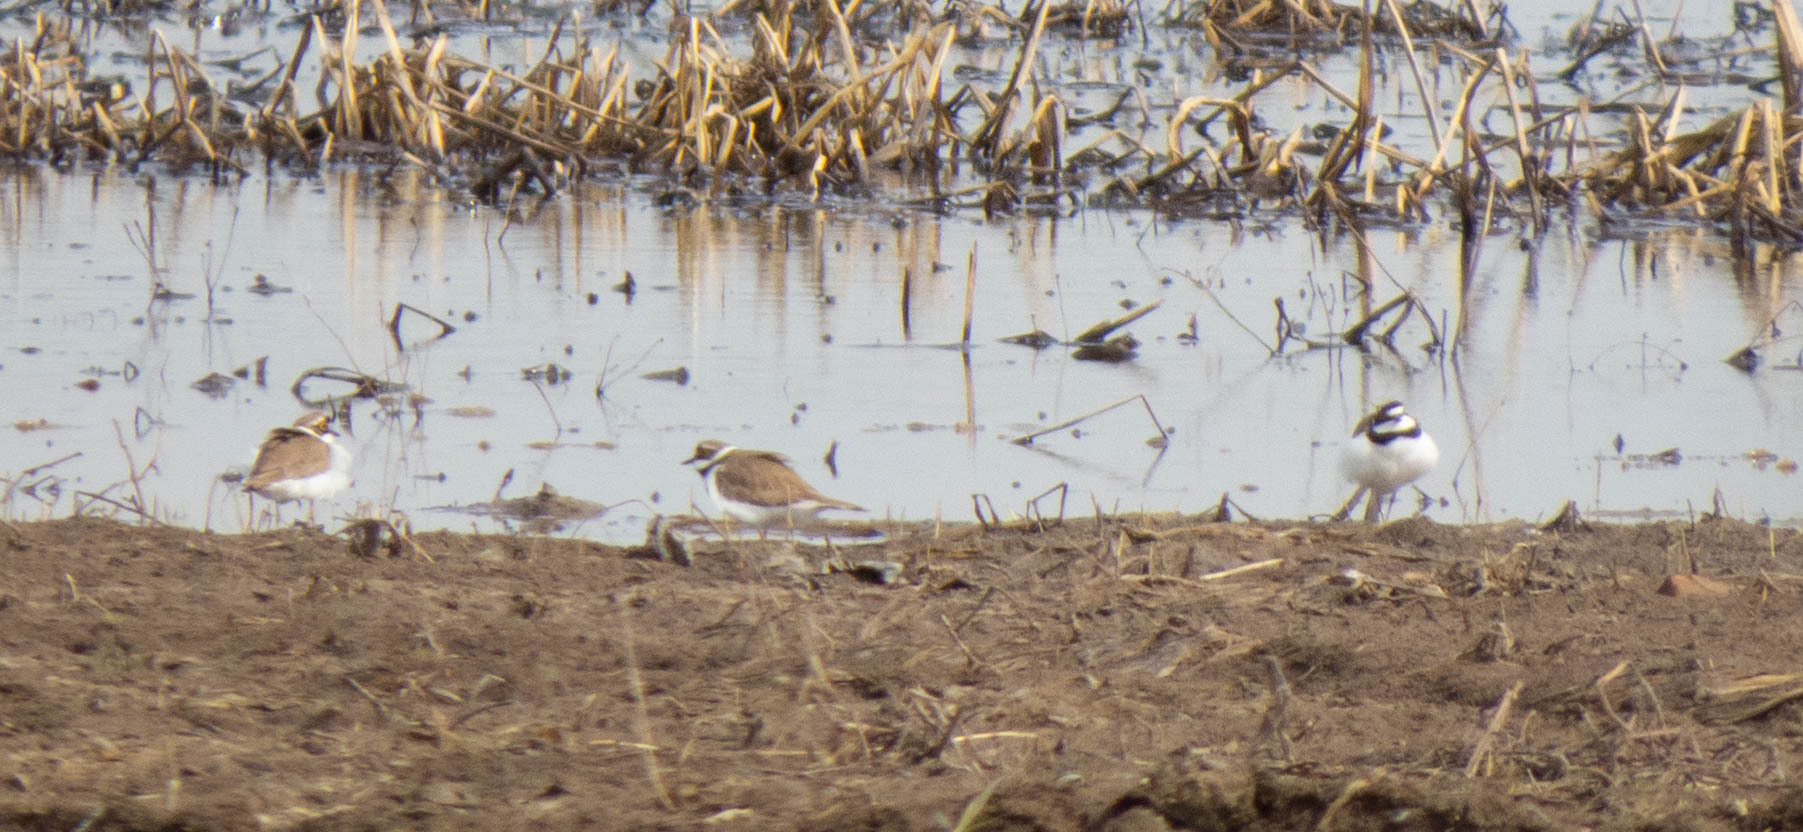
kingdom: Animalia
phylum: Chordata
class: Aves
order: Charadriiformes
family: Charadriidae
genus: Charadrius
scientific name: Charadrius dubius
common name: Little ringed plover
